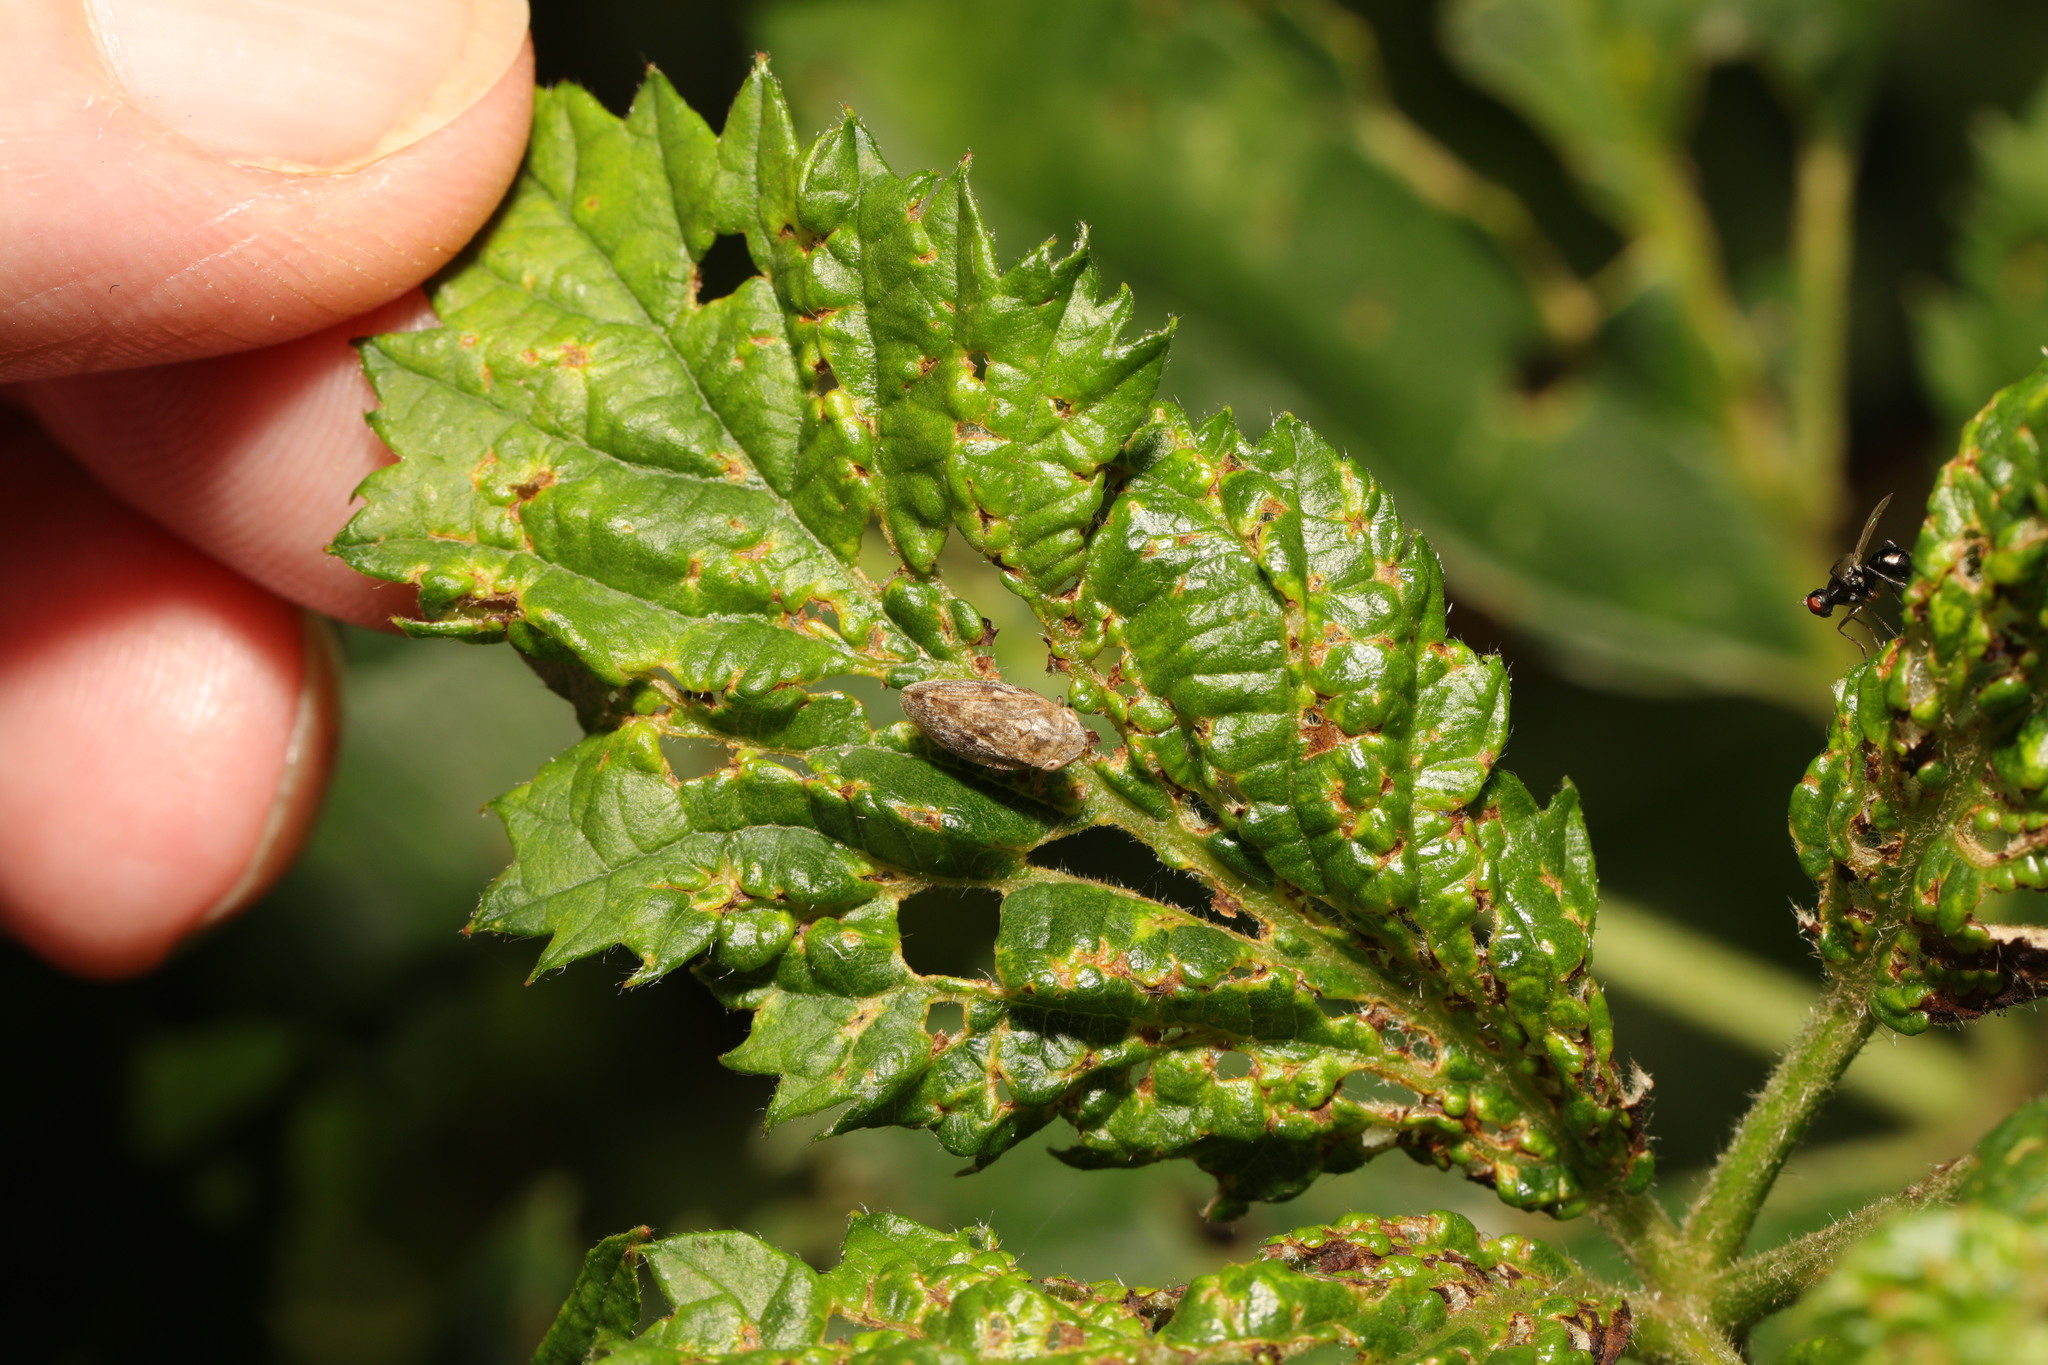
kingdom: Animalia
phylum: Arthropoda
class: Insecta
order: Hemiptera
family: Aphrophoridae
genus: Philaenus
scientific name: Philaenus spumarius
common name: Meadow spittlebug
